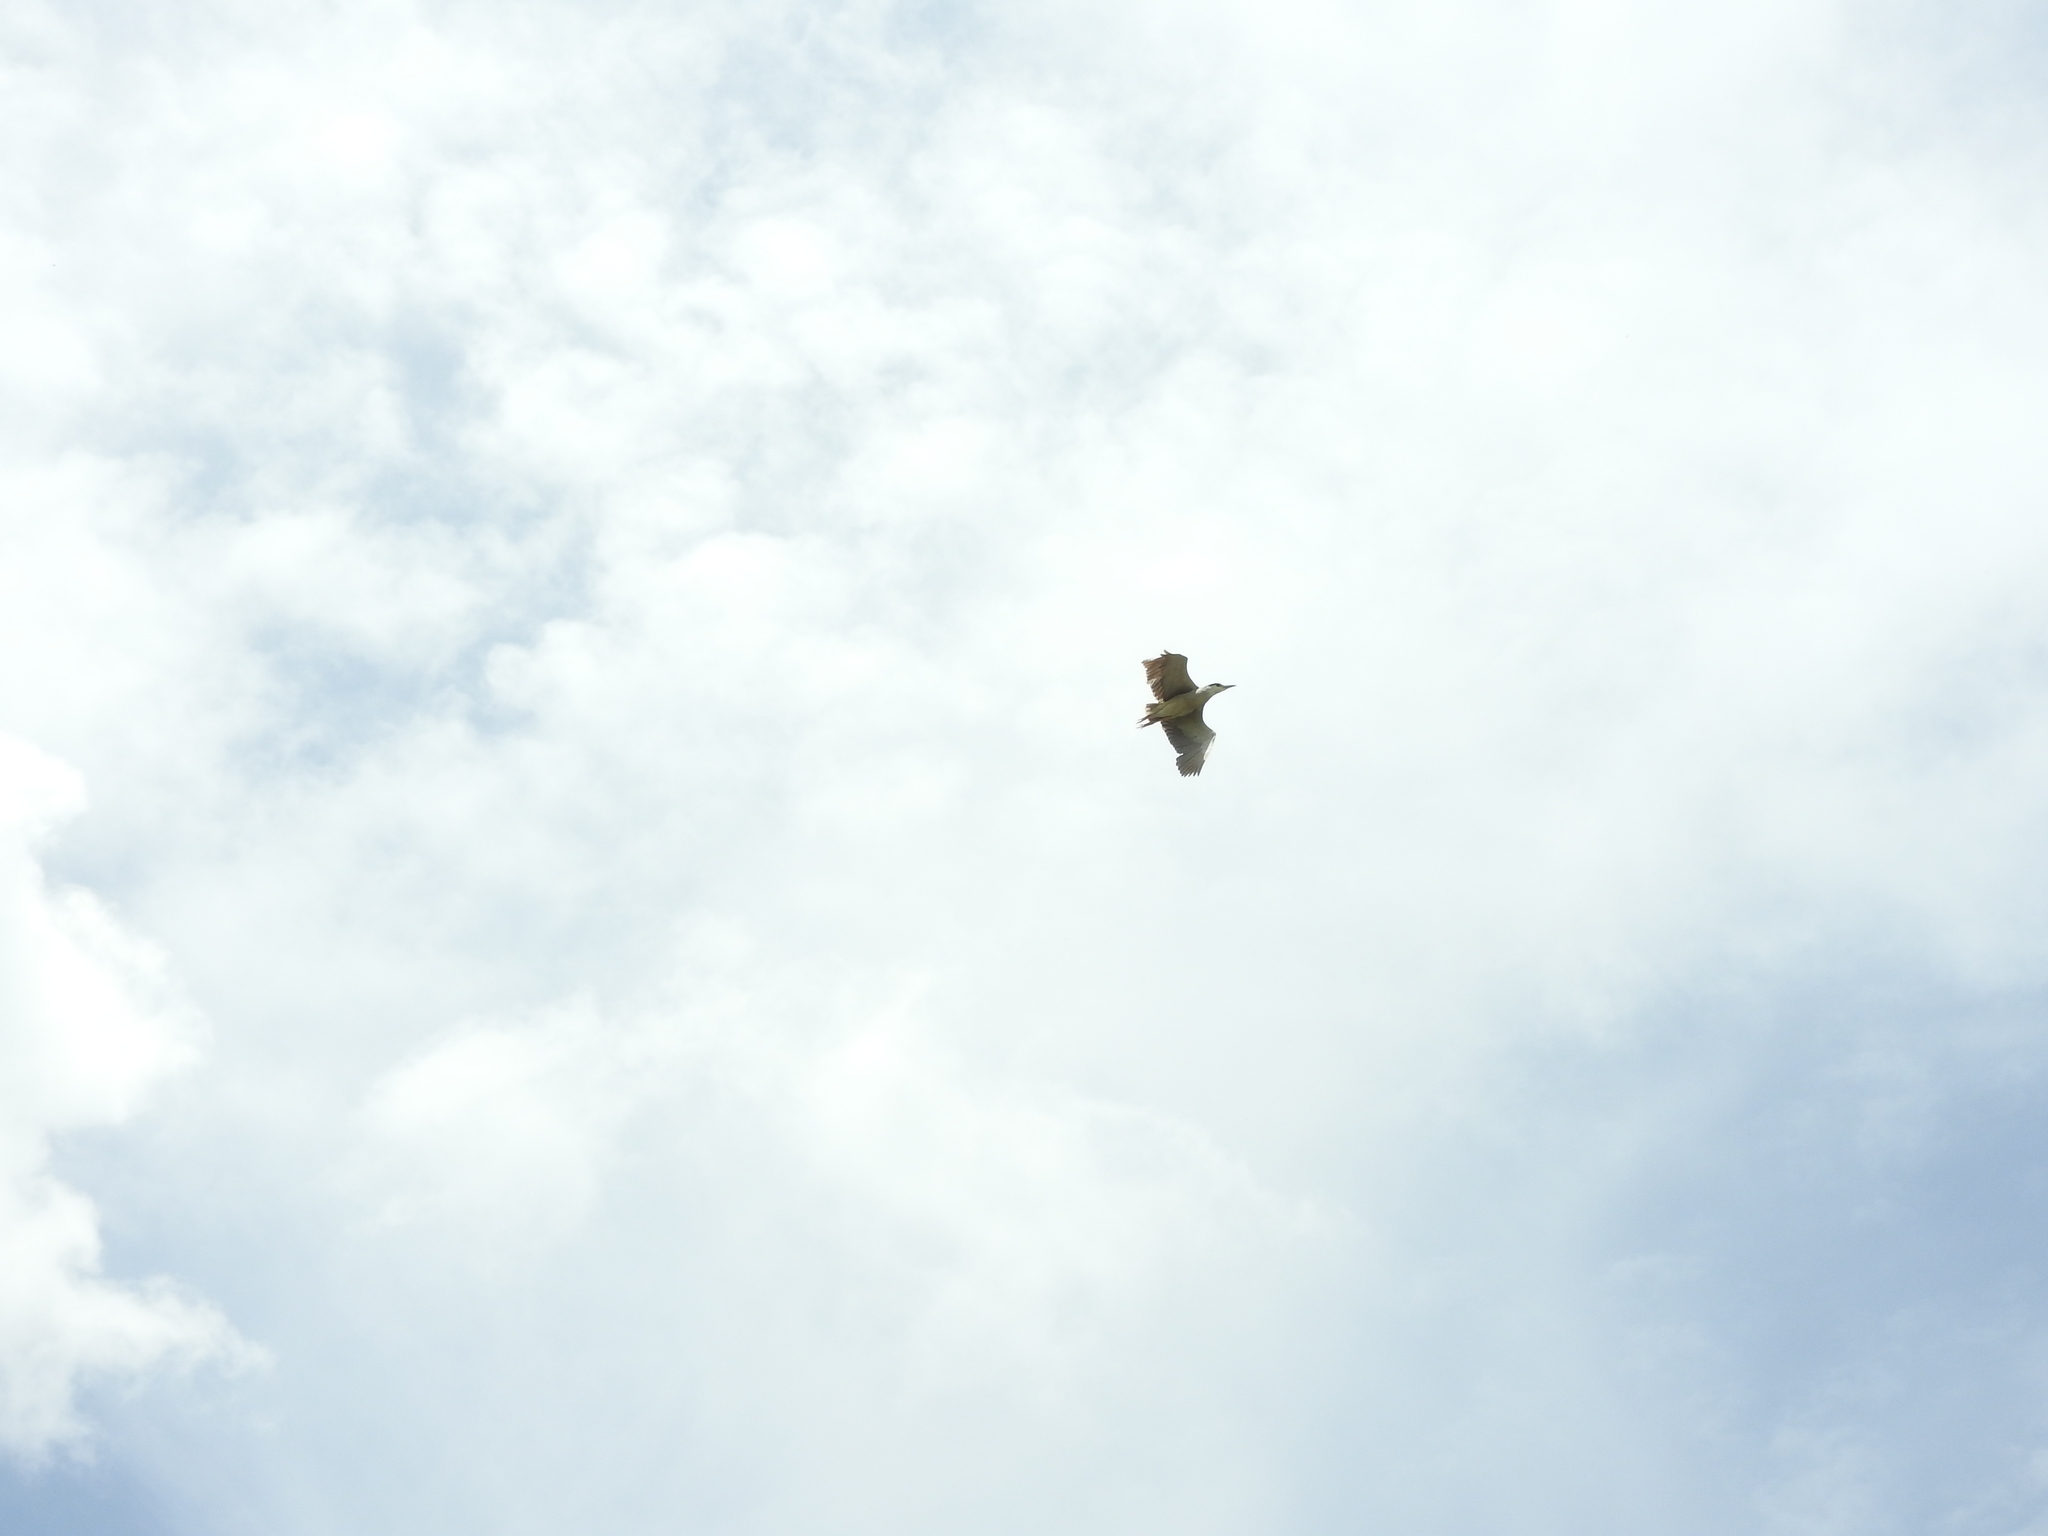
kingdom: Animalia
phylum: Chordata
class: Aves
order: Pelecaniformes
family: Ardeidae
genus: Nycticorax
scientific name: Nycticorax nycticorax
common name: Black-crowned night heron
